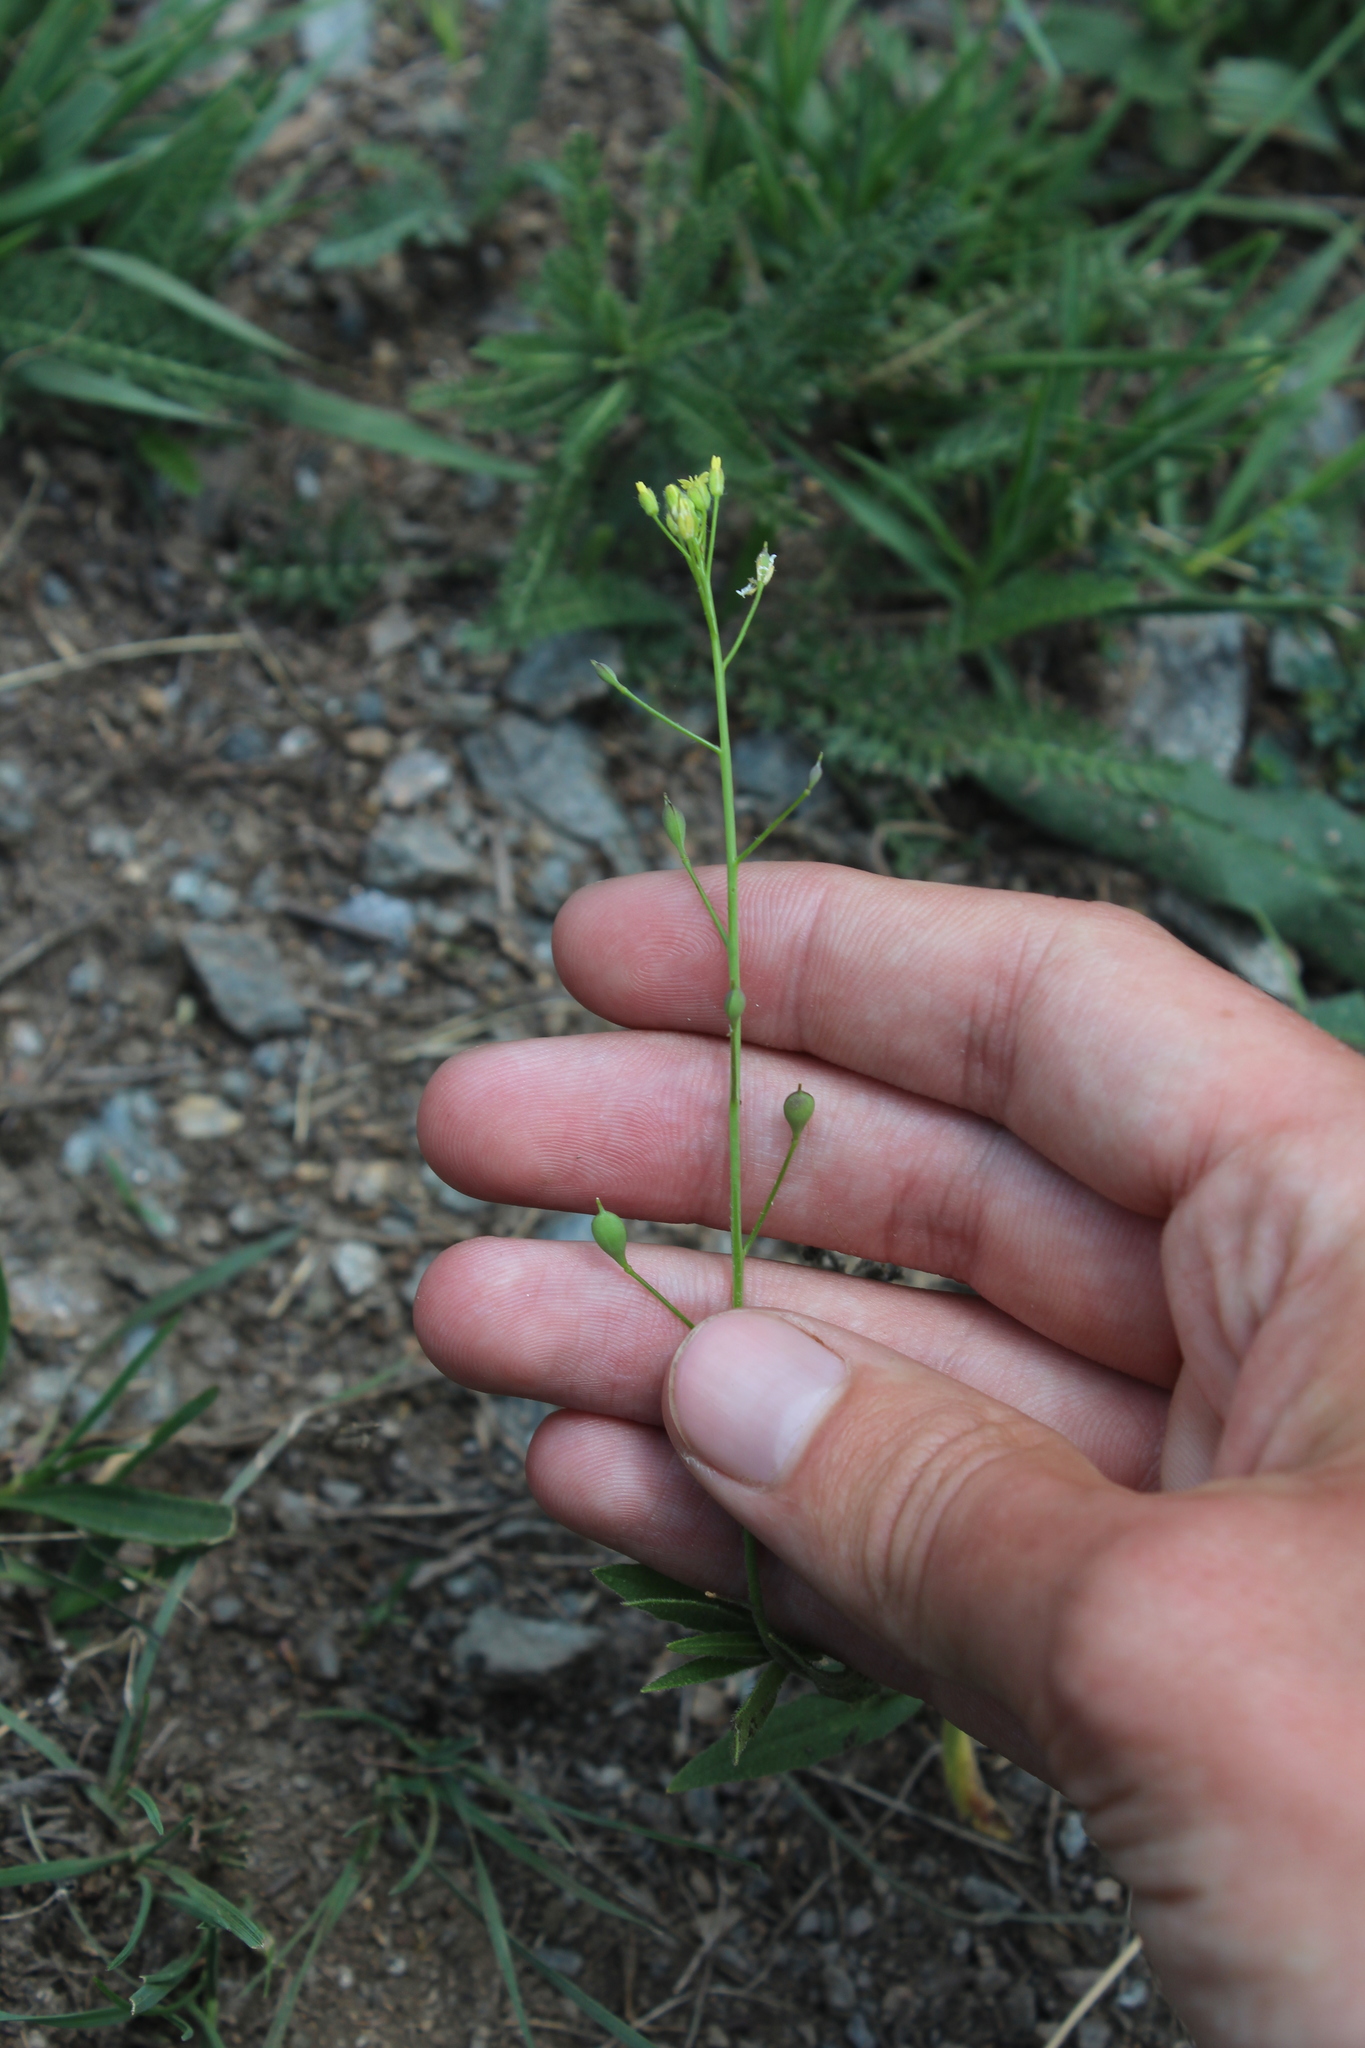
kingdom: Plantae
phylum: Tracheophyta
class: Magnoliopsida
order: Brassicales
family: Brassicaceae
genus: Camelina
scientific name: Camelina microcarpa
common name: Lesser gold-of-pleasure
